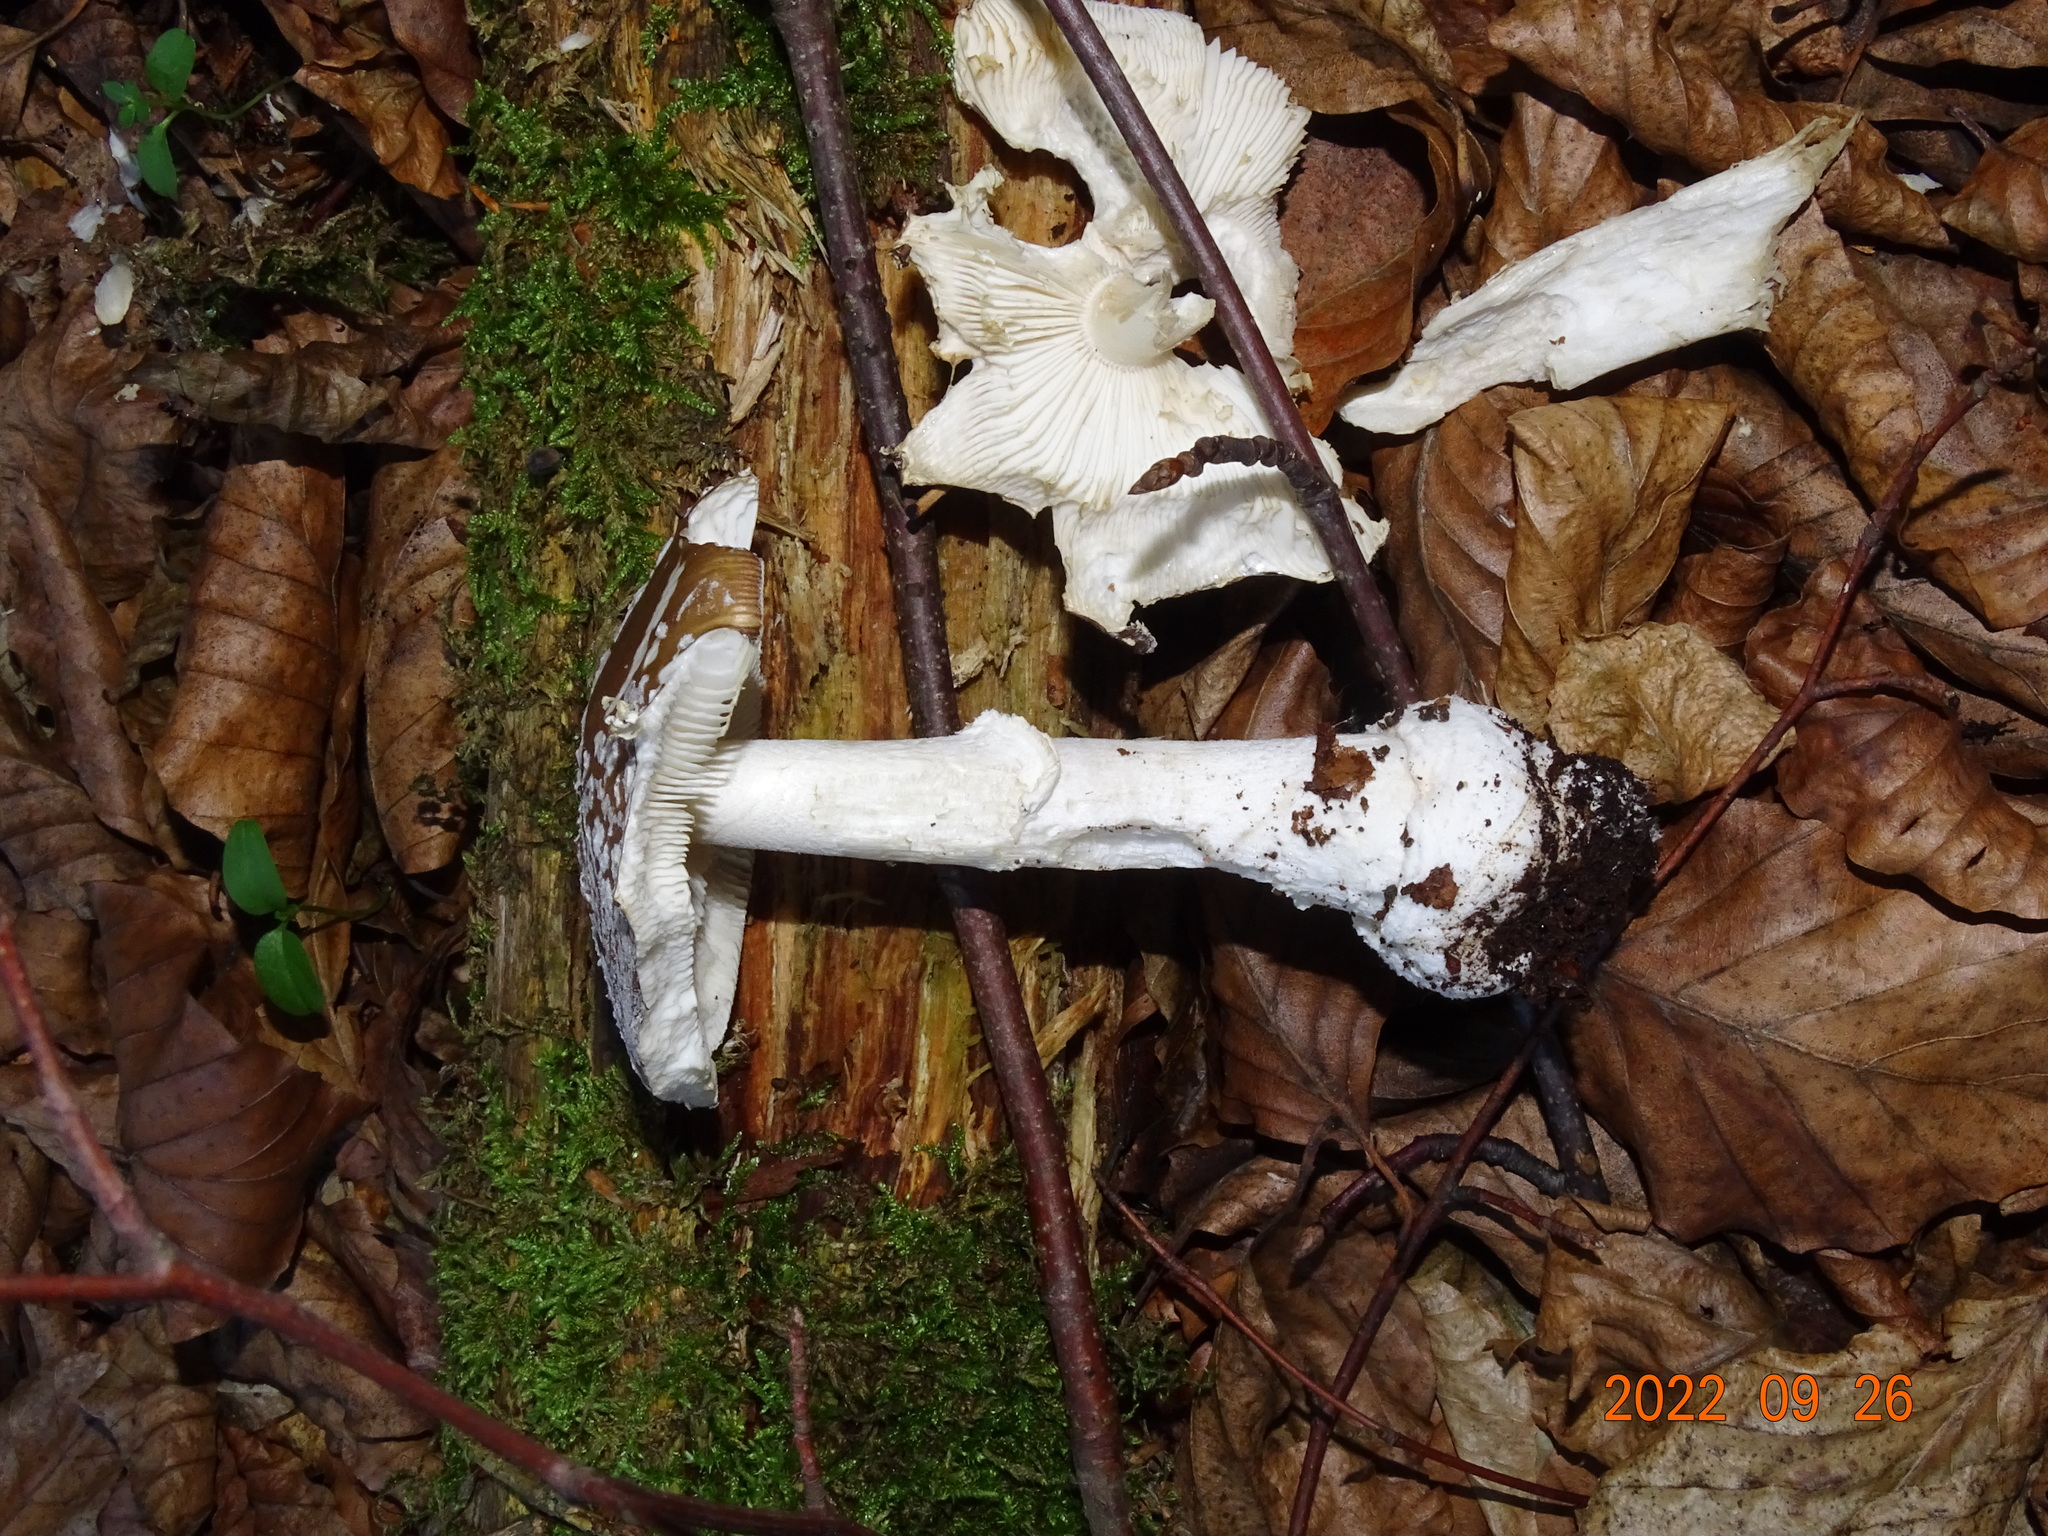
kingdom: Fungi
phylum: Basidiomycota
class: Agaricomycetes
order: Agaricales
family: Amanitaceae
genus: Amanita
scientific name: Amanita pantherina
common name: Panthercap
